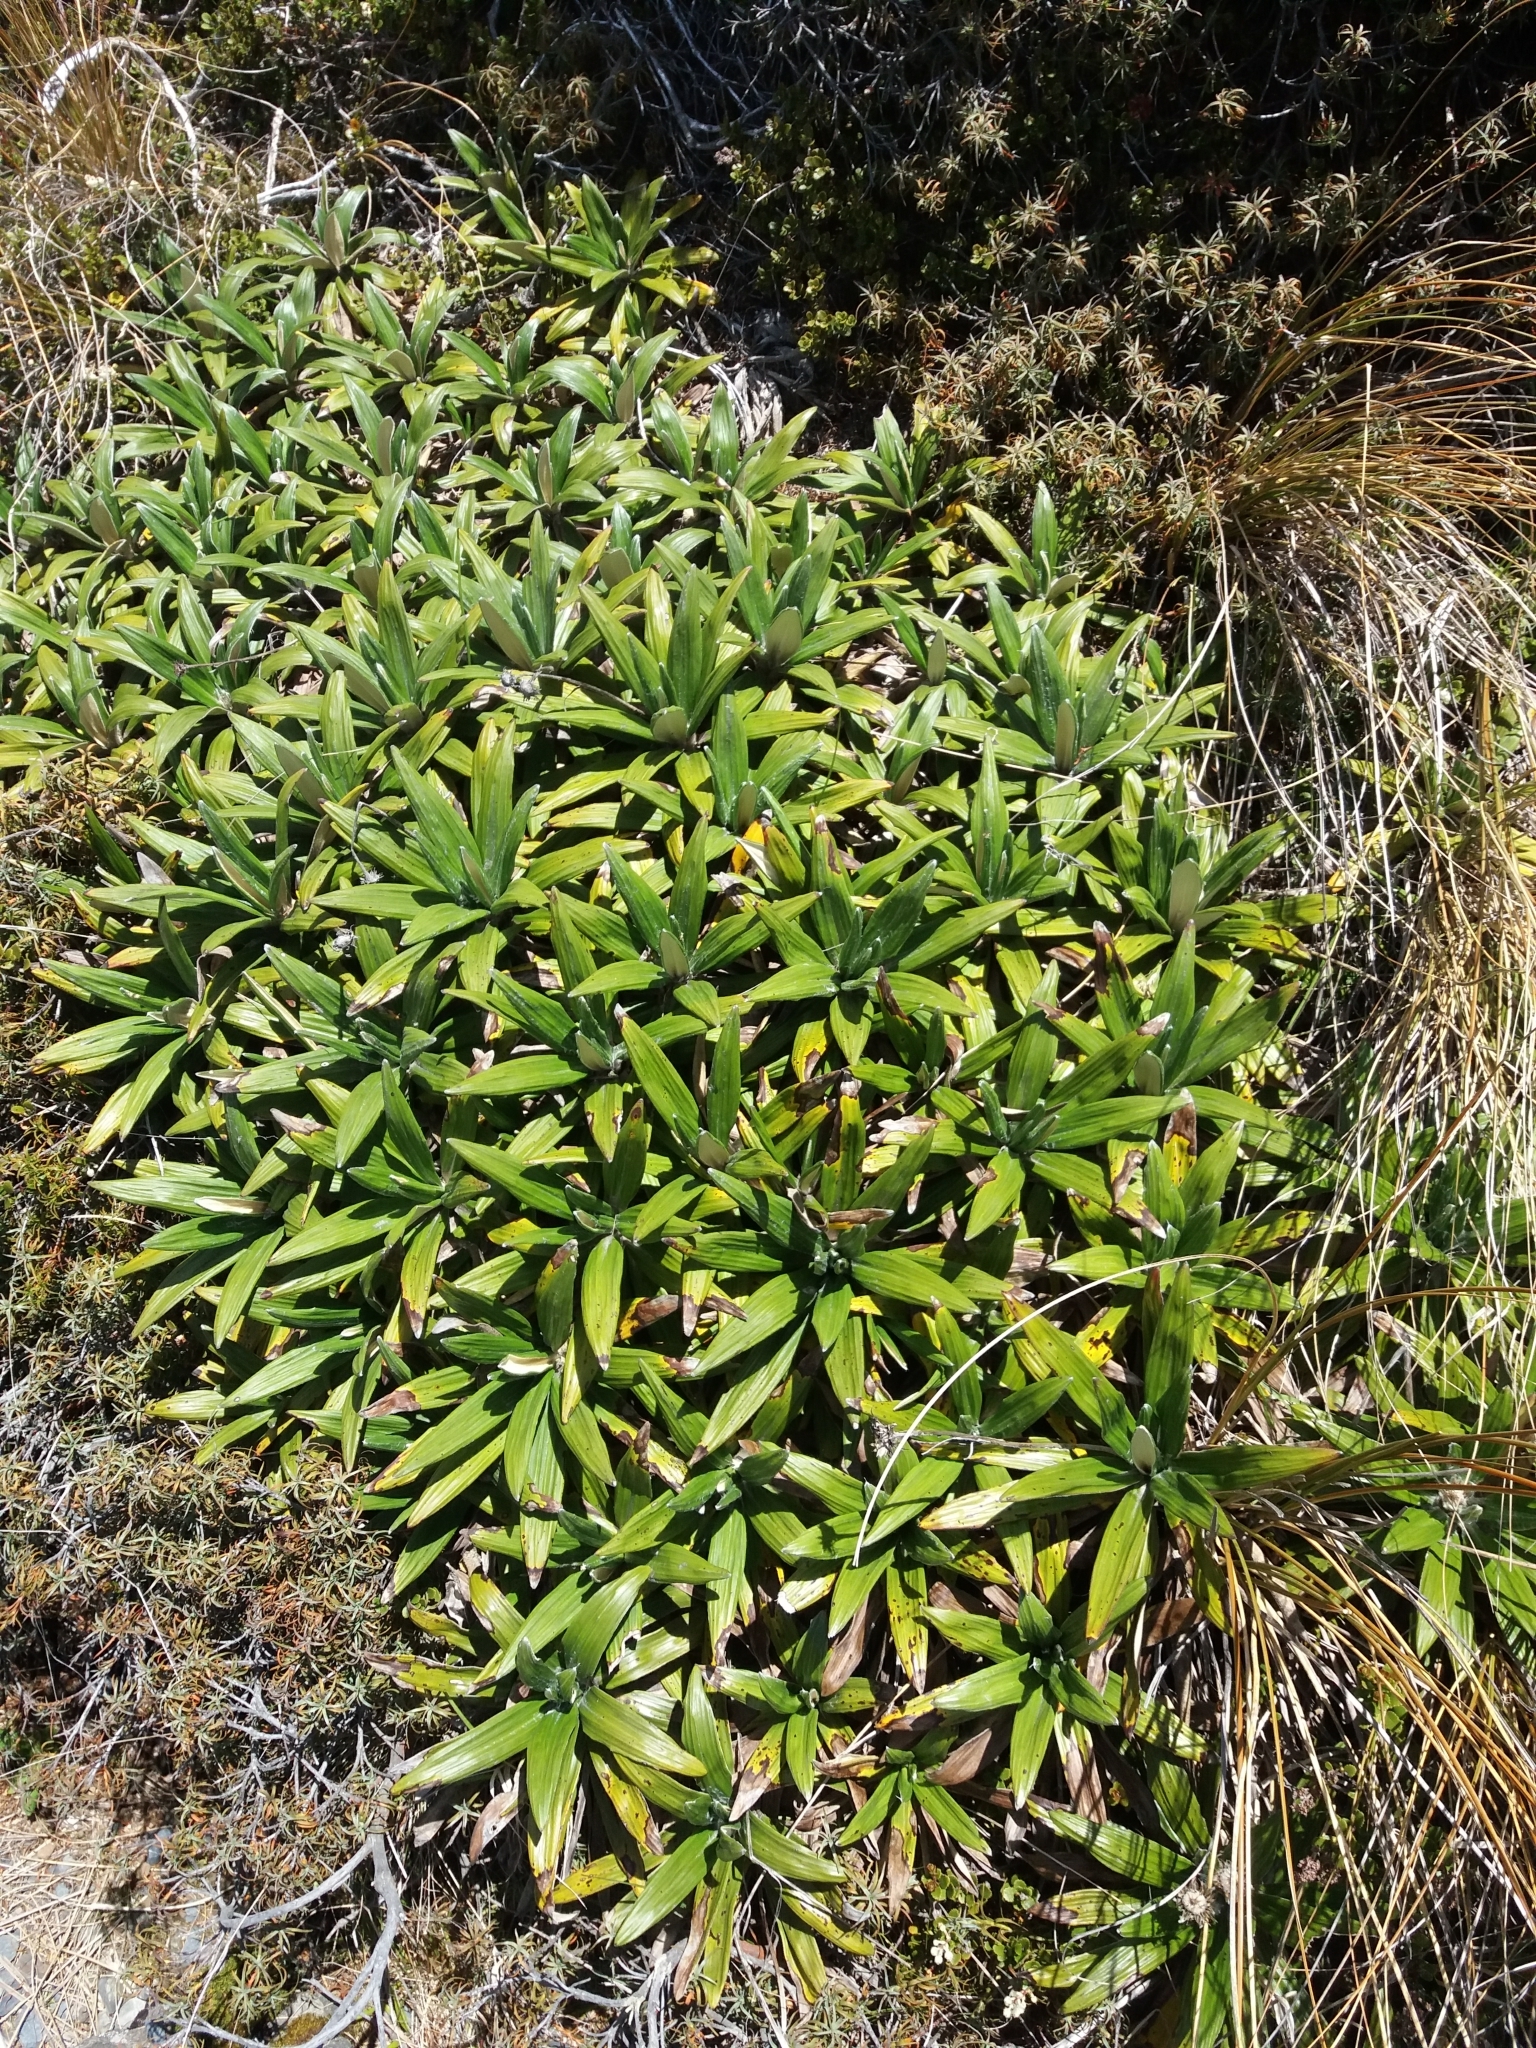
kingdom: Plantae
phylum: Tracheophyta
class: Magnoliopsida
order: Asterales
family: Asteraceae
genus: Celmisia
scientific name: Celmisia spectabilis
